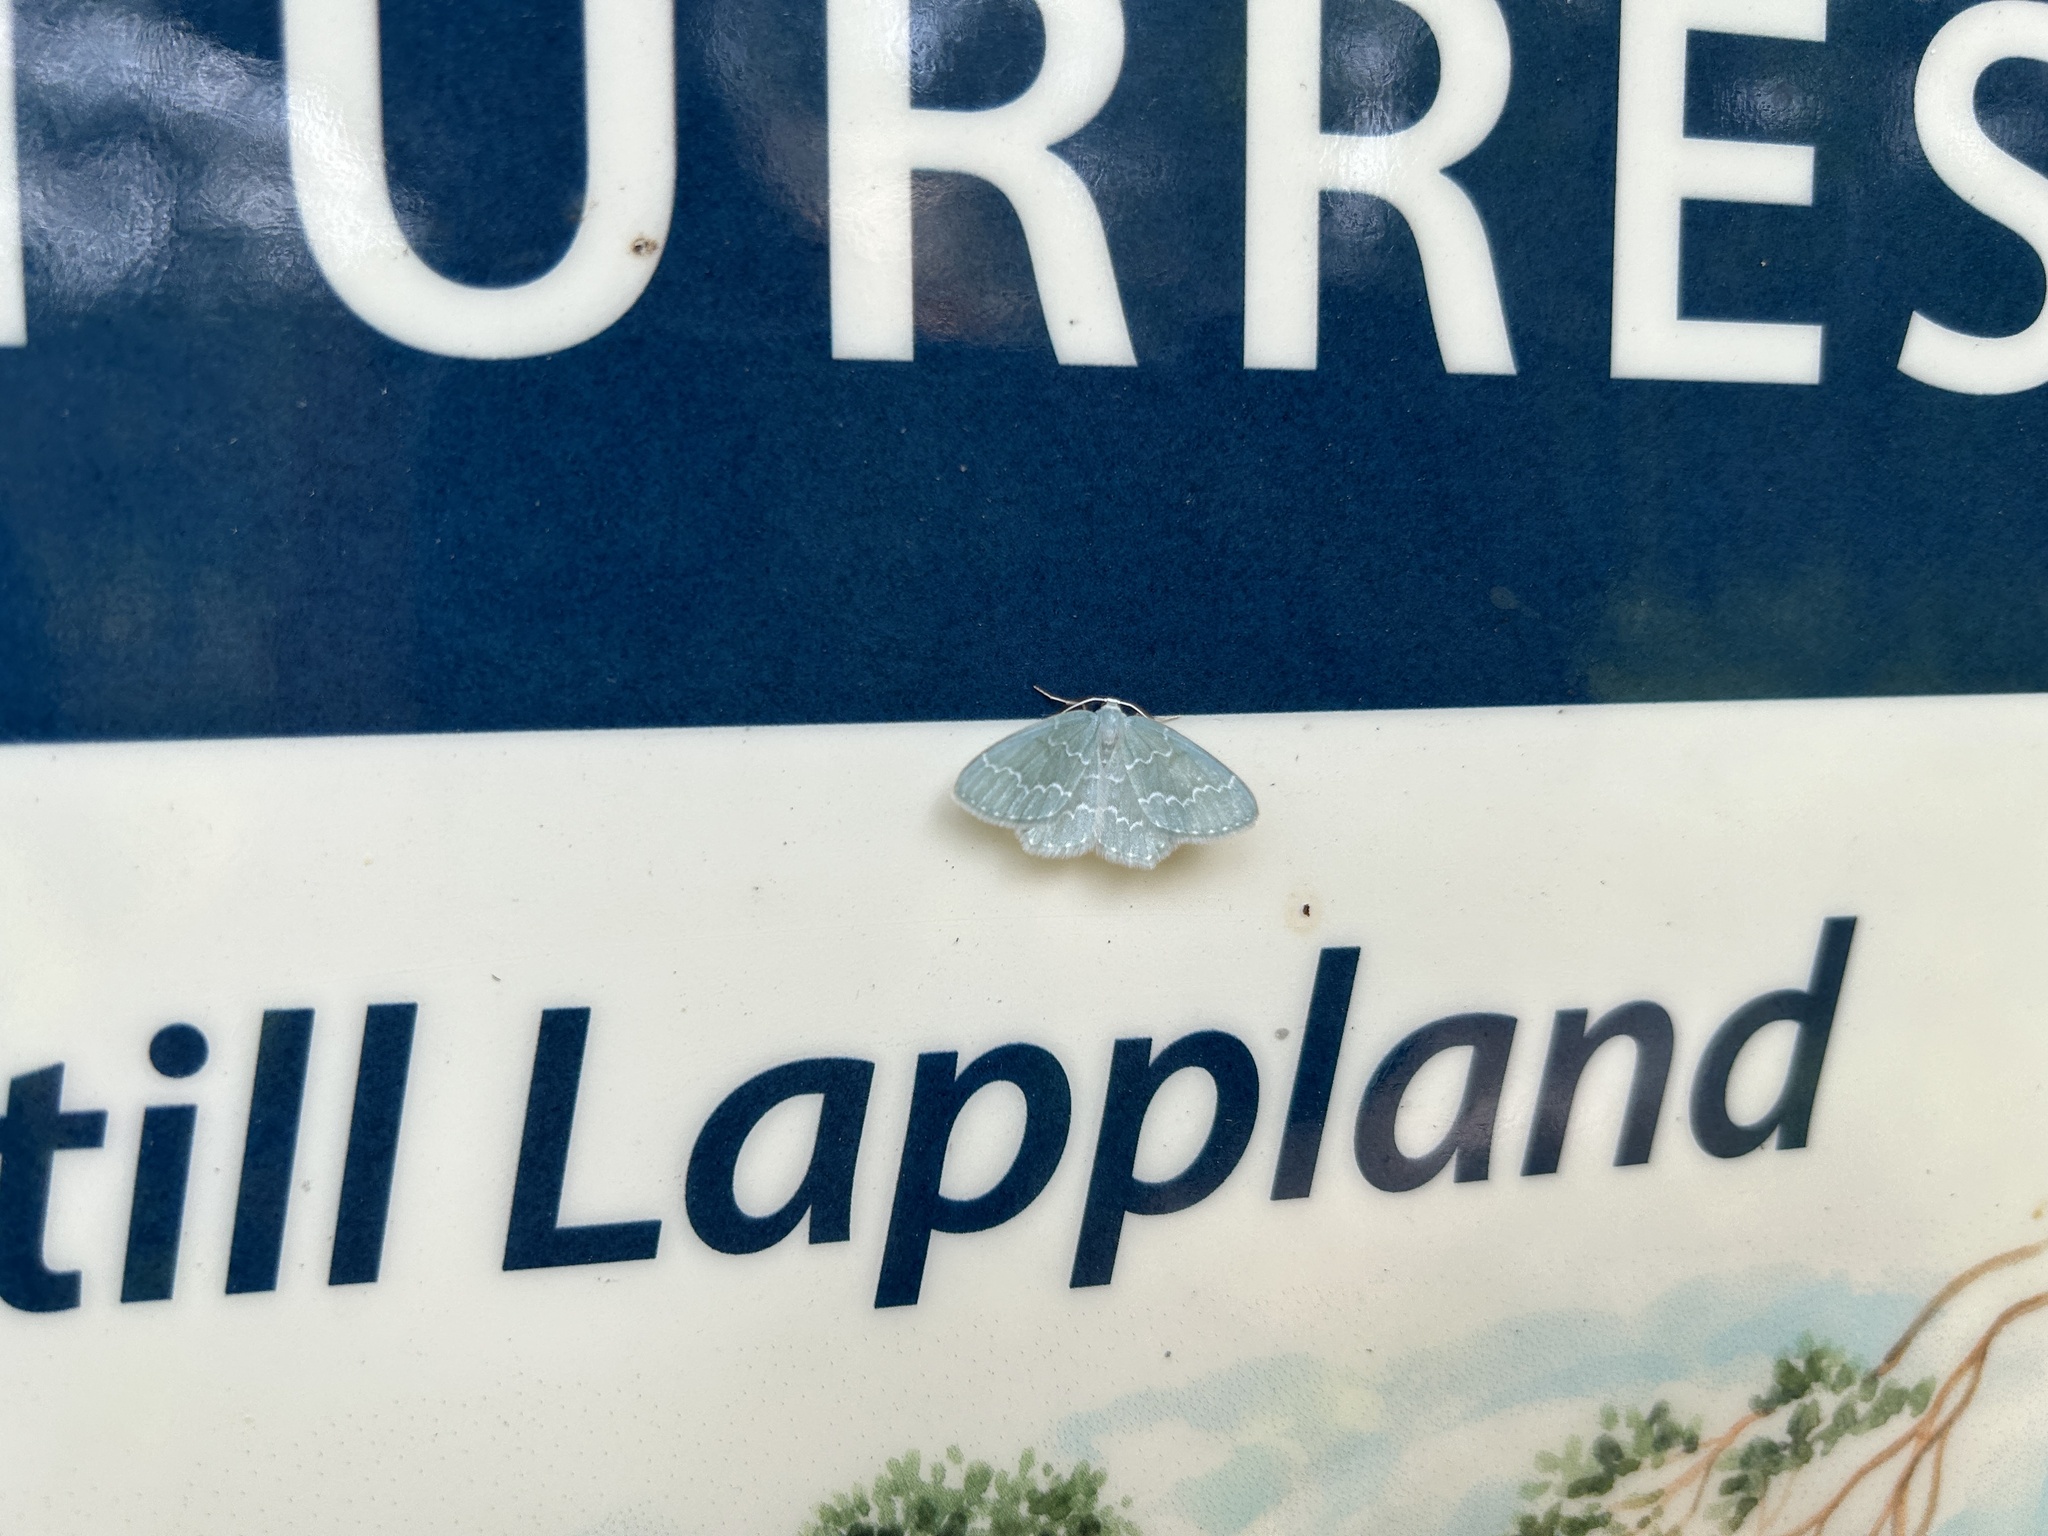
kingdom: Animalia
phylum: Arthropoda
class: Insecta
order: Lepidoptera
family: Geometridae
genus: Jodis
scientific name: Jodis putata
